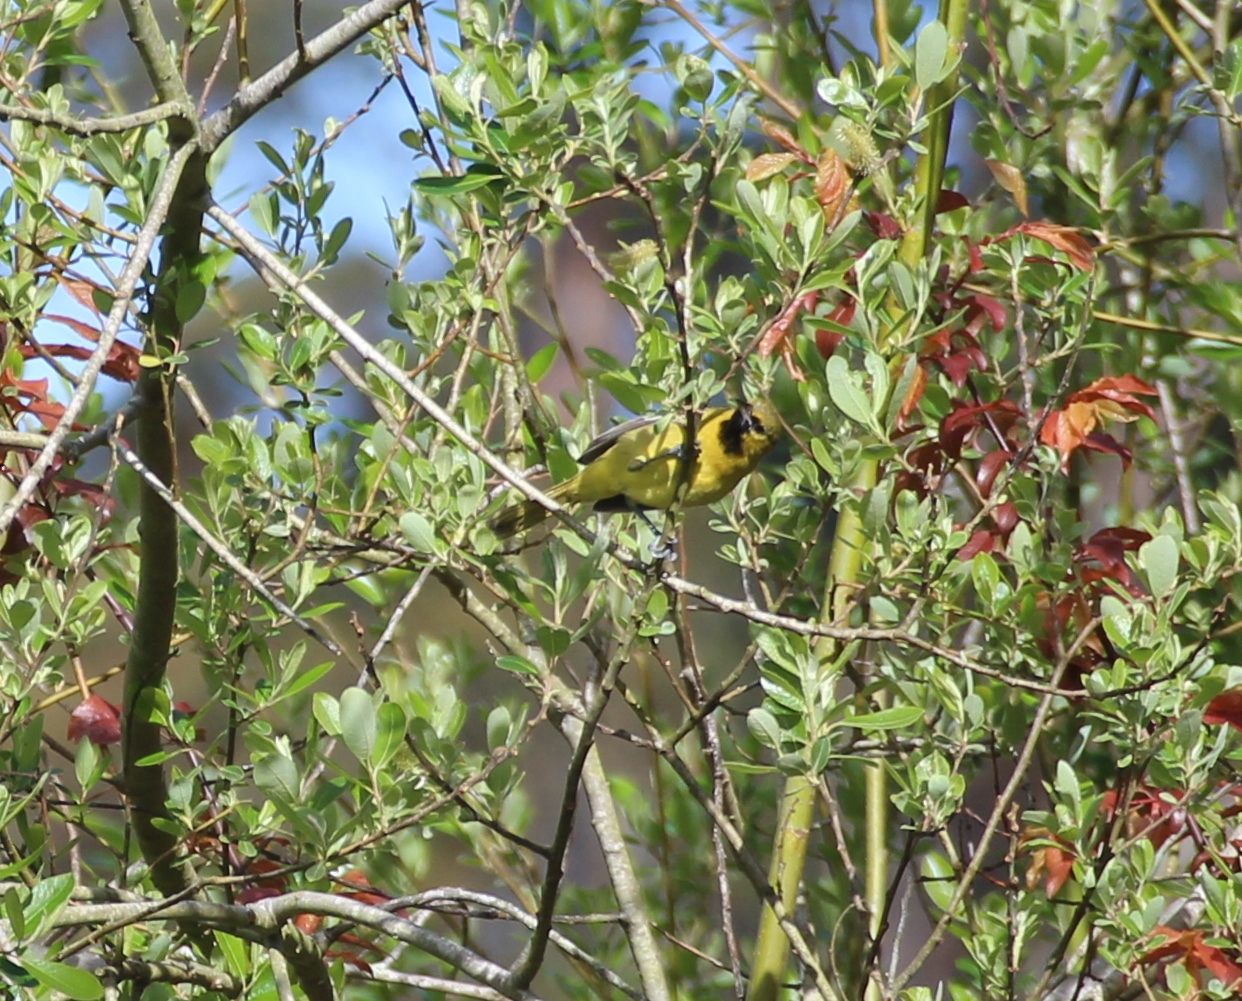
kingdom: Animalia
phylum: Chordata
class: Aves
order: Passeriformes
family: Icteridae
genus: Icterus
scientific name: Icterus spurius
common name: Orchard oriole
